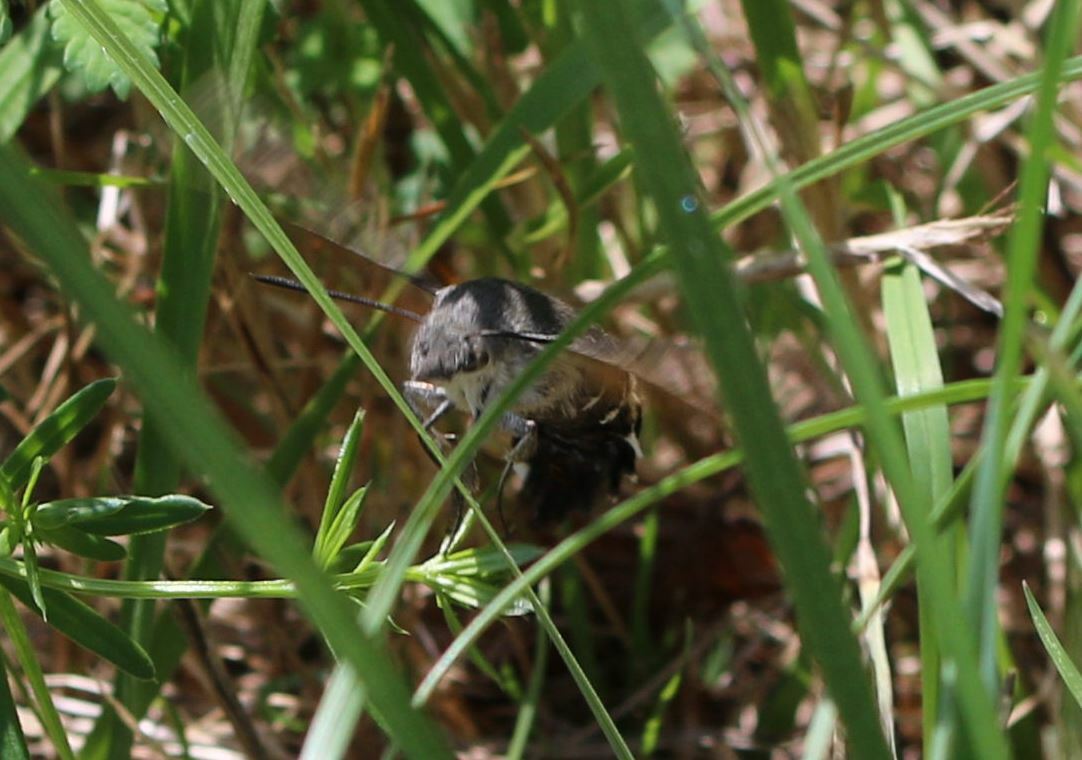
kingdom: Animalia
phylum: Arthropoda
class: Insecta
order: Lepidoptera
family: Sphingidae
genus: Macroglossum
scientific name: Macroglossum stellatarum
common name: Humming-bird hawk-moth
